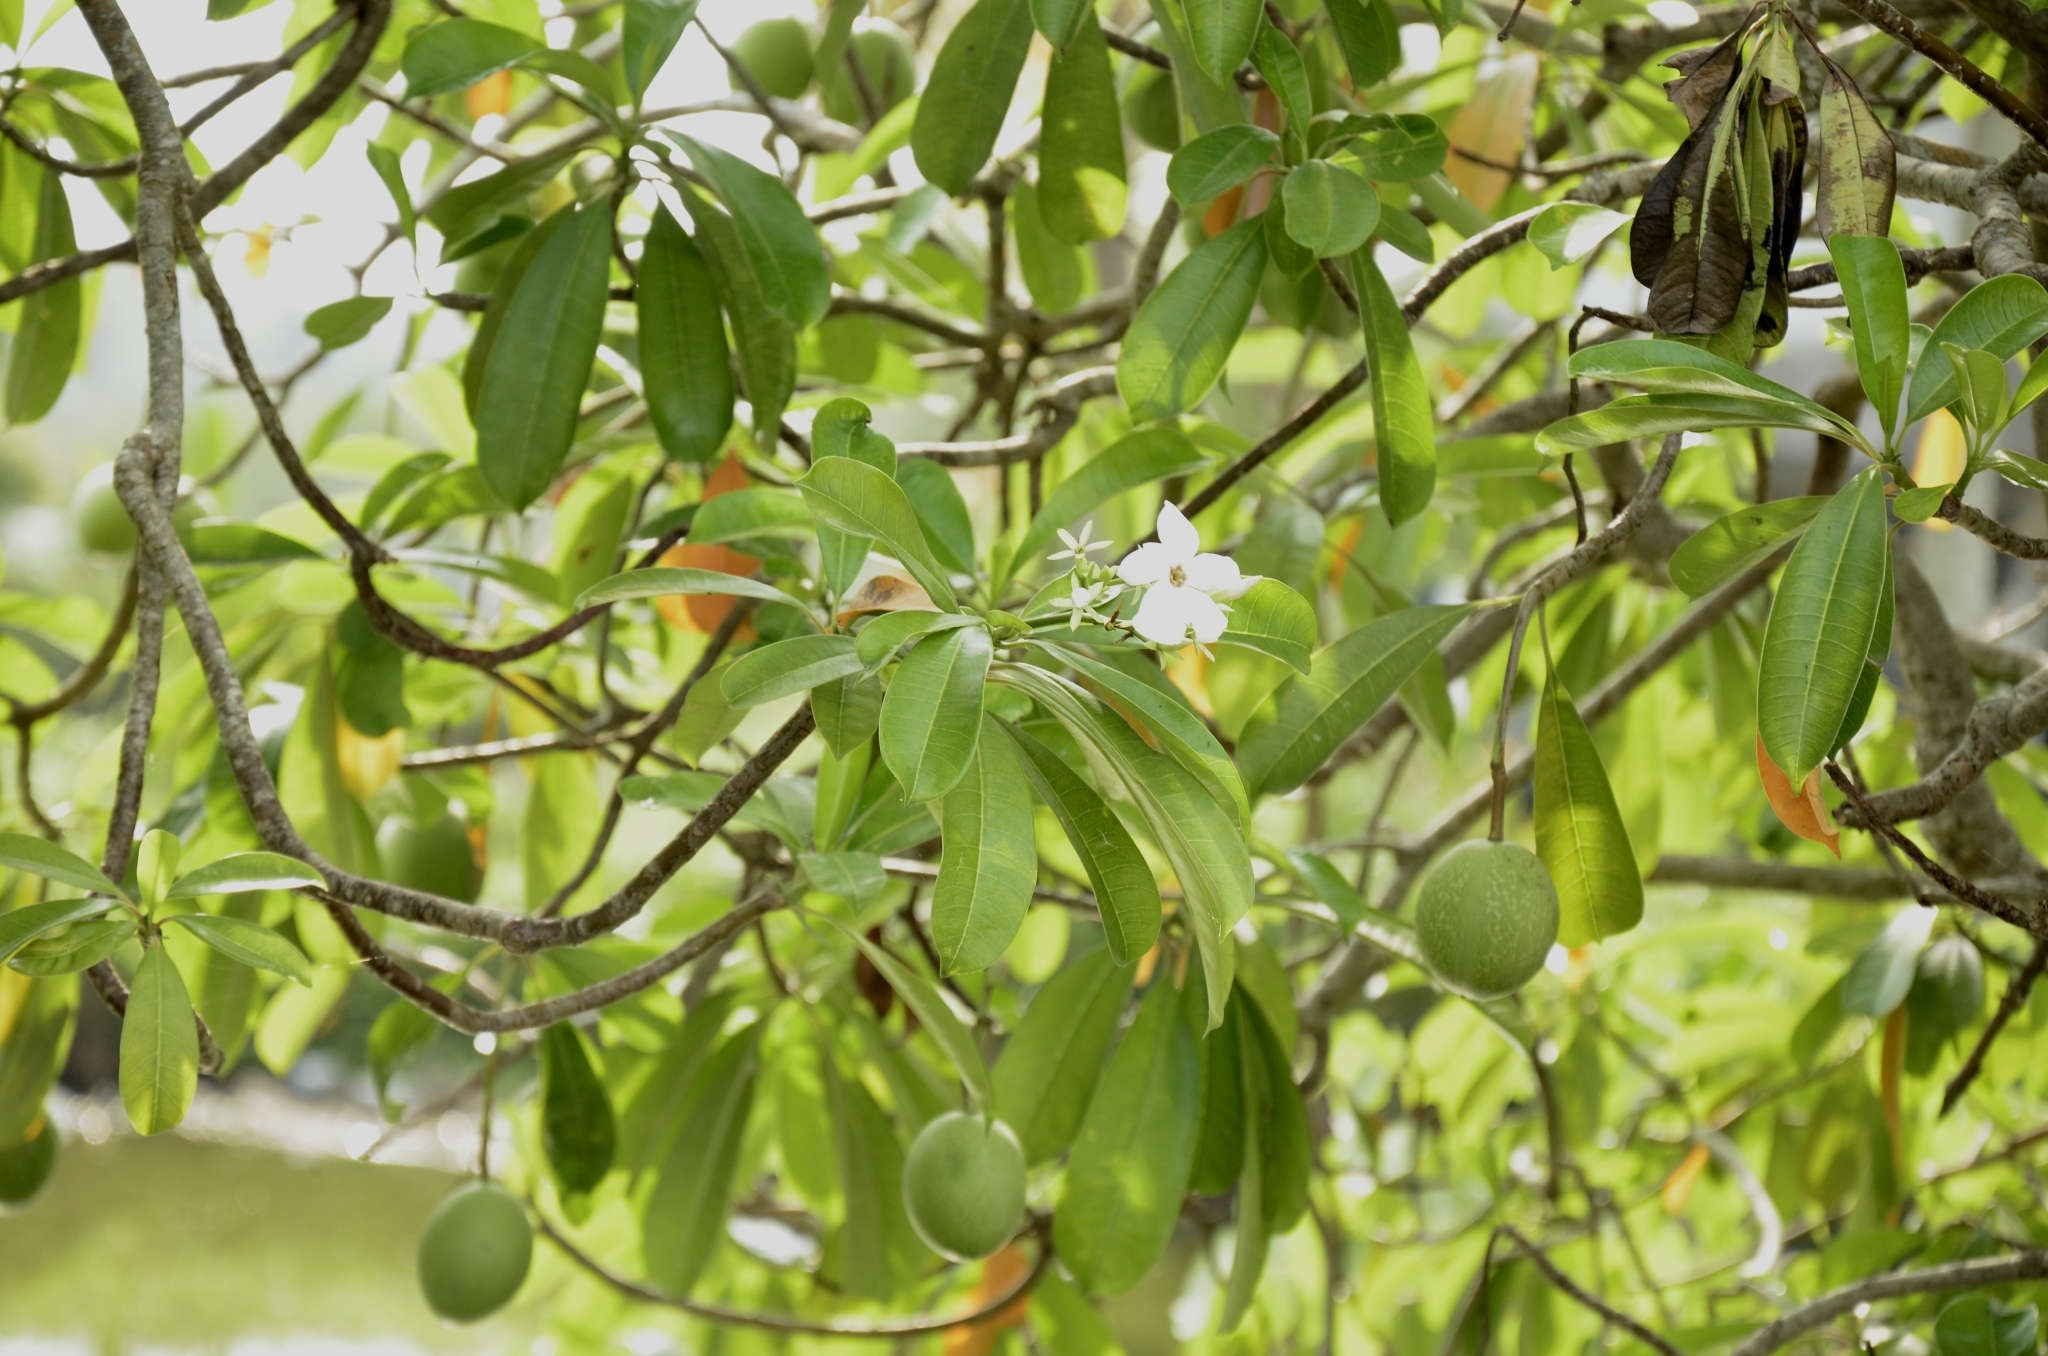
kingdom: Plantae
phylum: Tracheophyta
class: Magnoliopsida
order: Gentianales
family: Apocynaceae
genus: Cerbera
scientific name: Cerbera odollam
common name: Pong-pong
